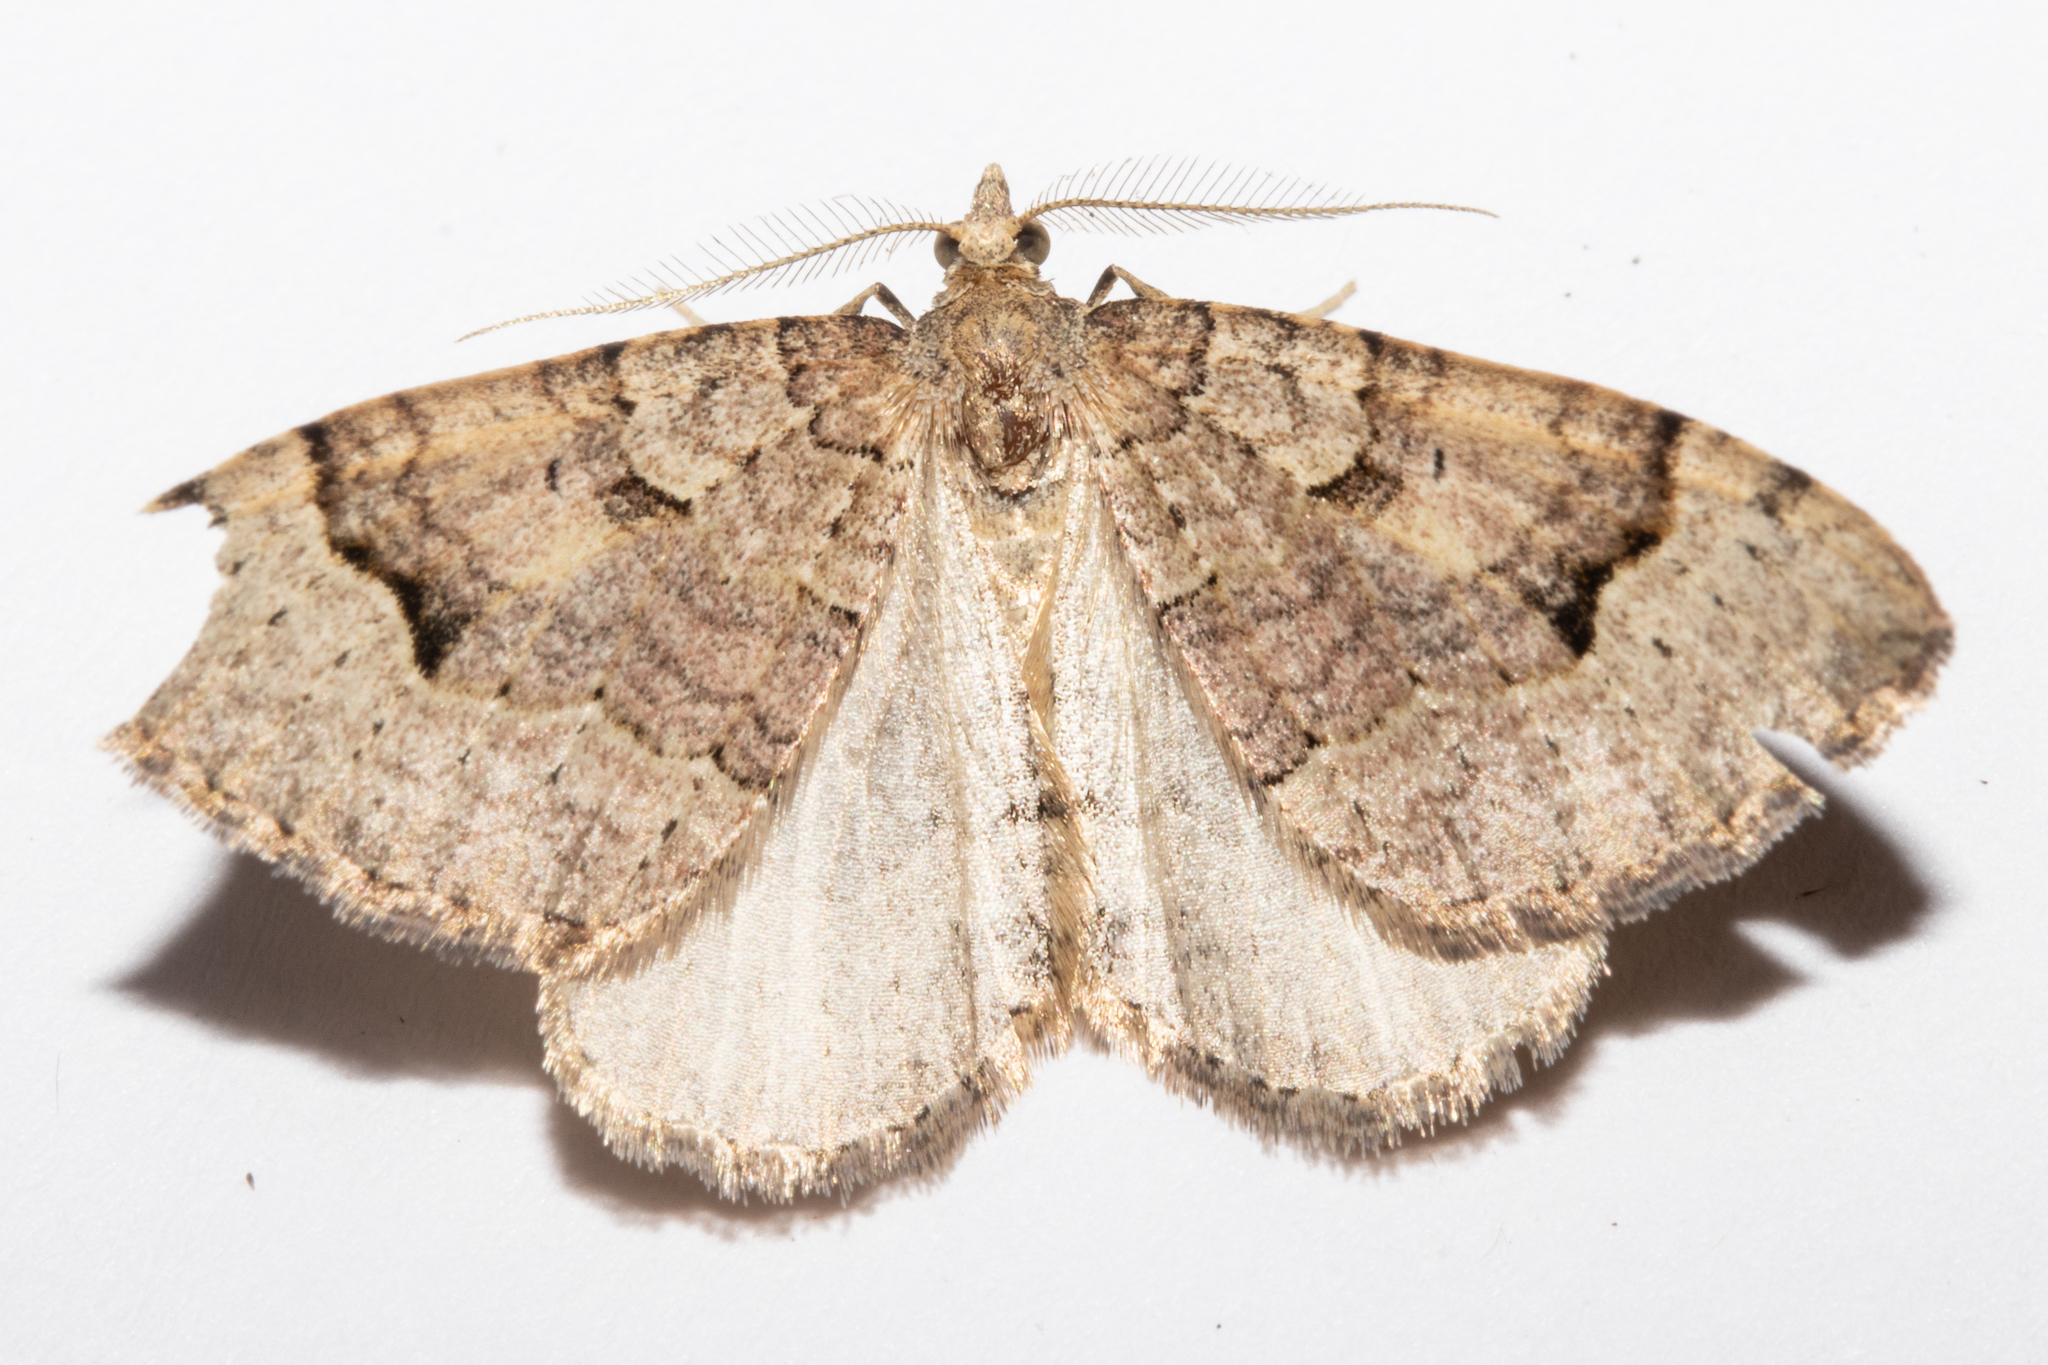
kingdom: Animalia
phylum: Arthropoda
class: Insecta
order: Lepidoptera
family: Geometridae
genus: Epyaxa
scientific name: Epyaxa rosearia
